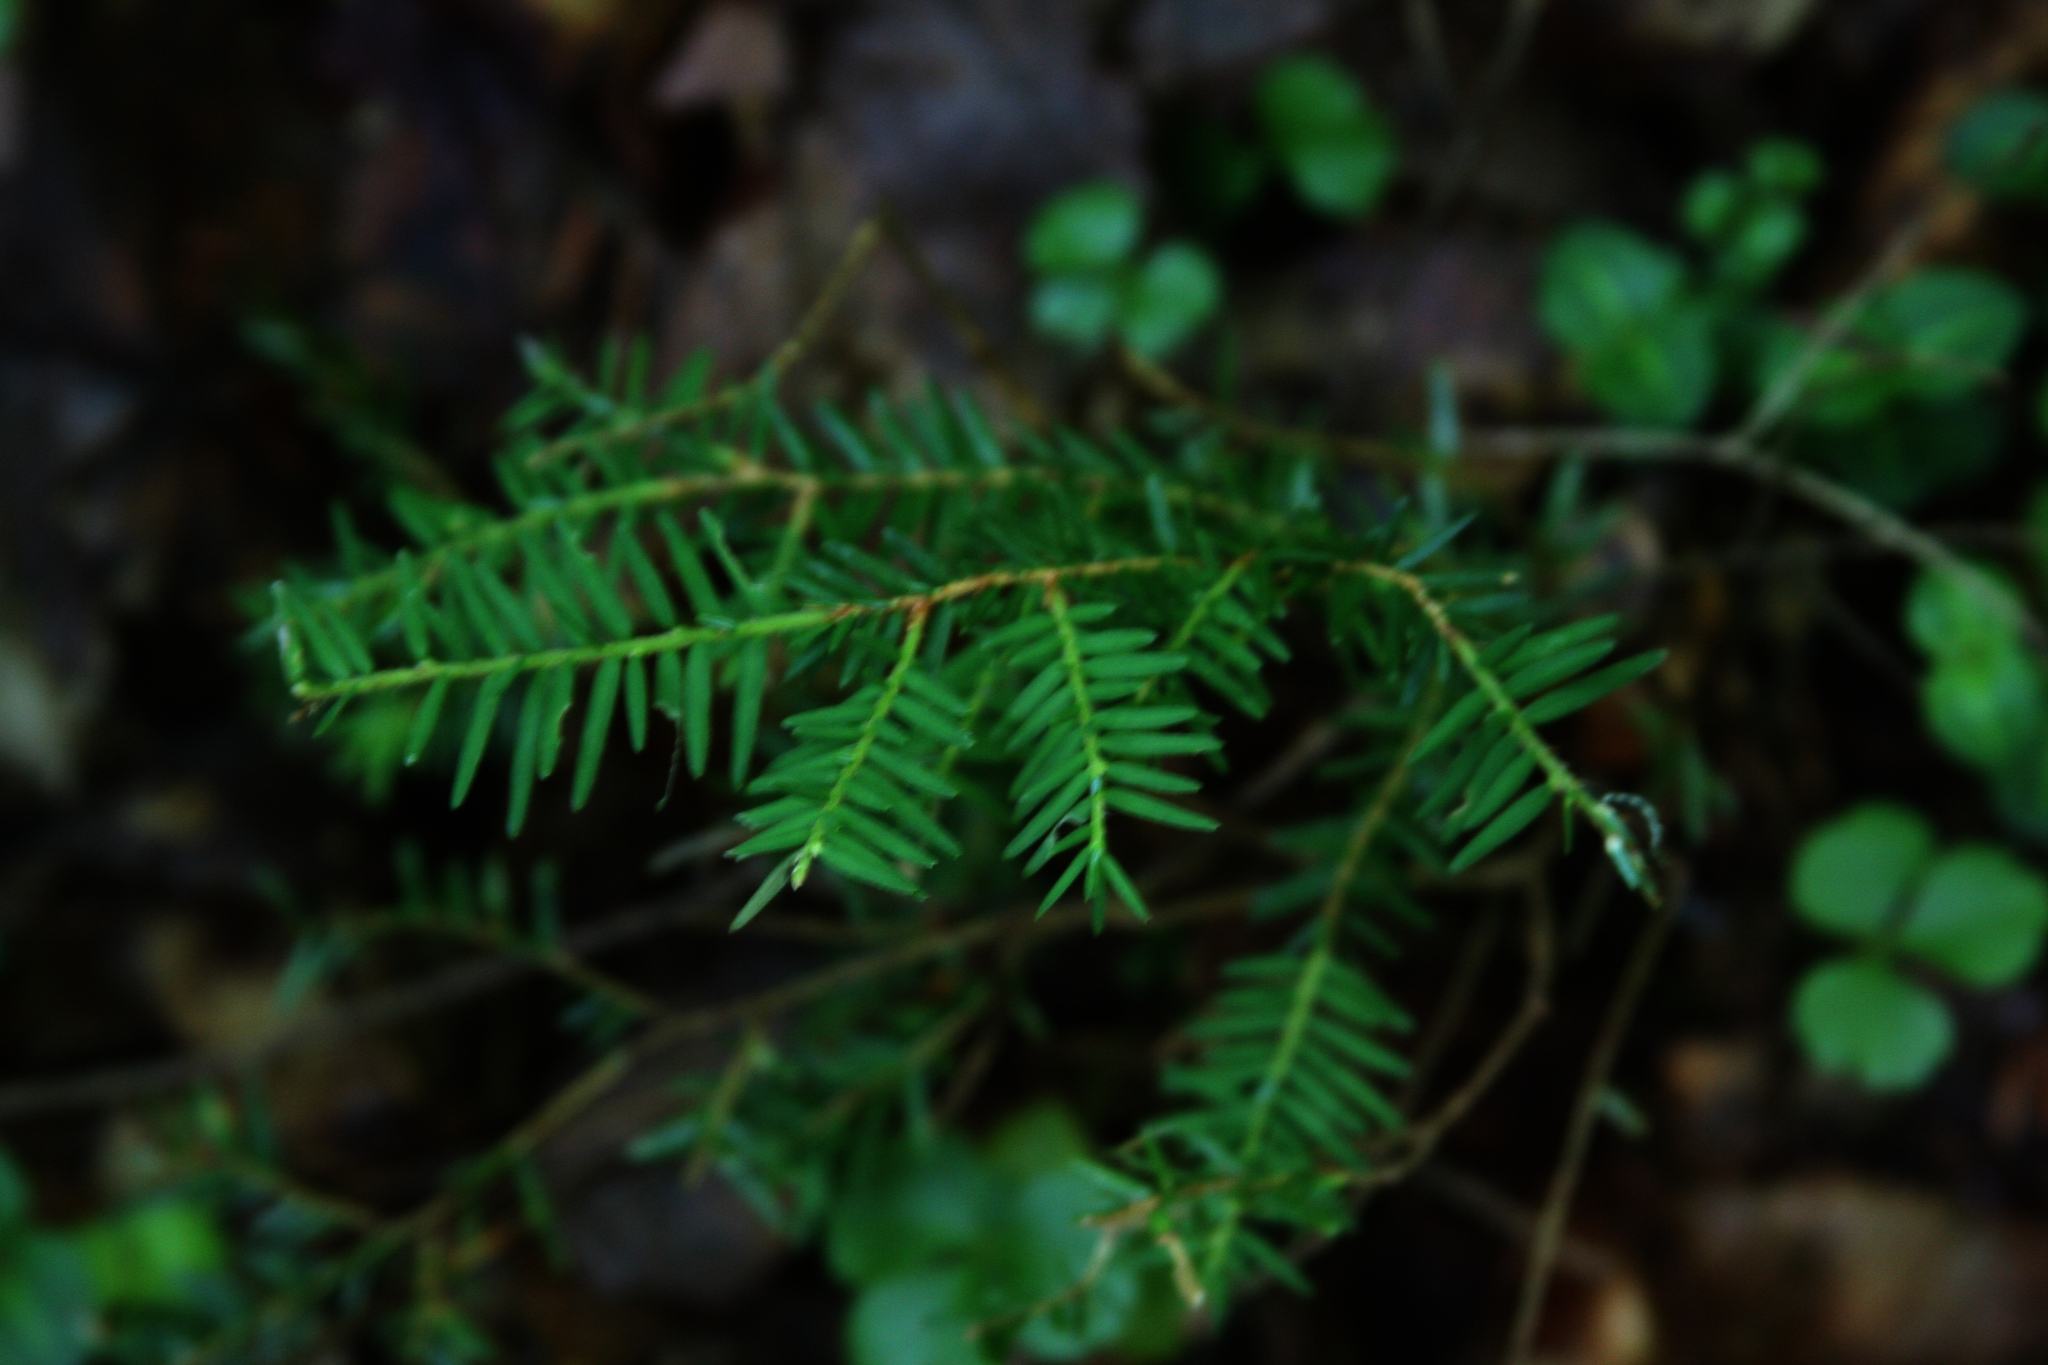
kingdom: Plantae
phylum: Tracheophyta
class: Pinopsida
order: Pinales
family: Pinaceae
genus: Tsuga
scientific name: Tsuga canadensis
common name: Eastern hemlock
